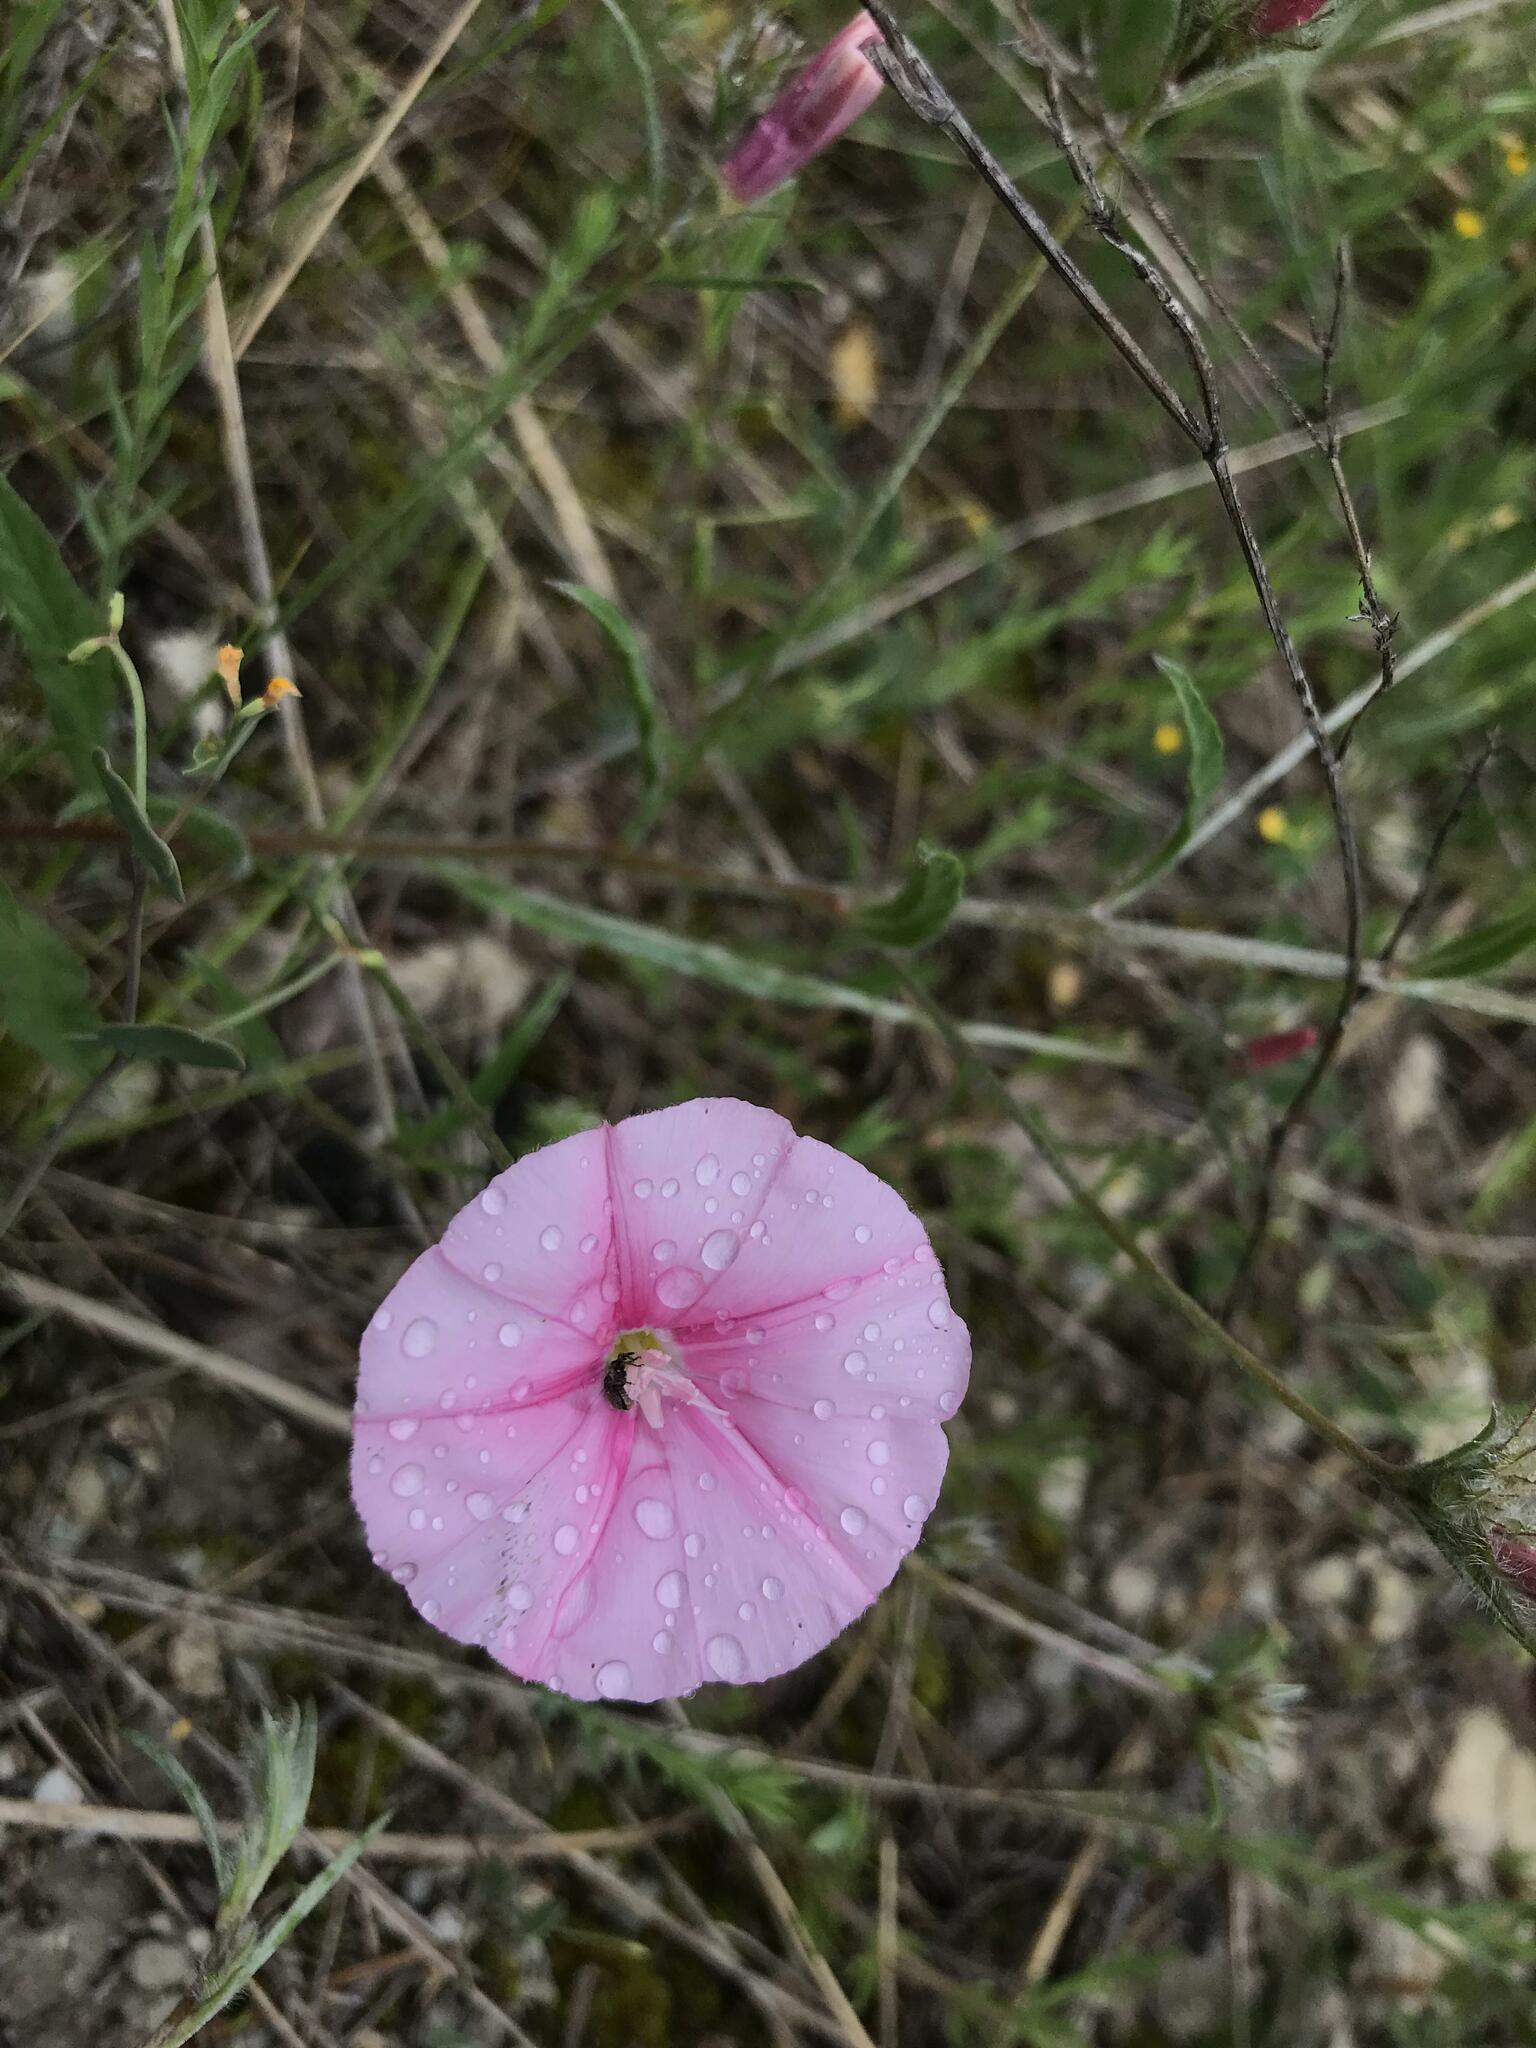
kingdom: Plantae
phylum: Tracheophyta
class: Magnoliopsida
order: Solanales
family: Convolvulaceae
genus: Convolvulus
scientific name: Convolvulus cantabrica
